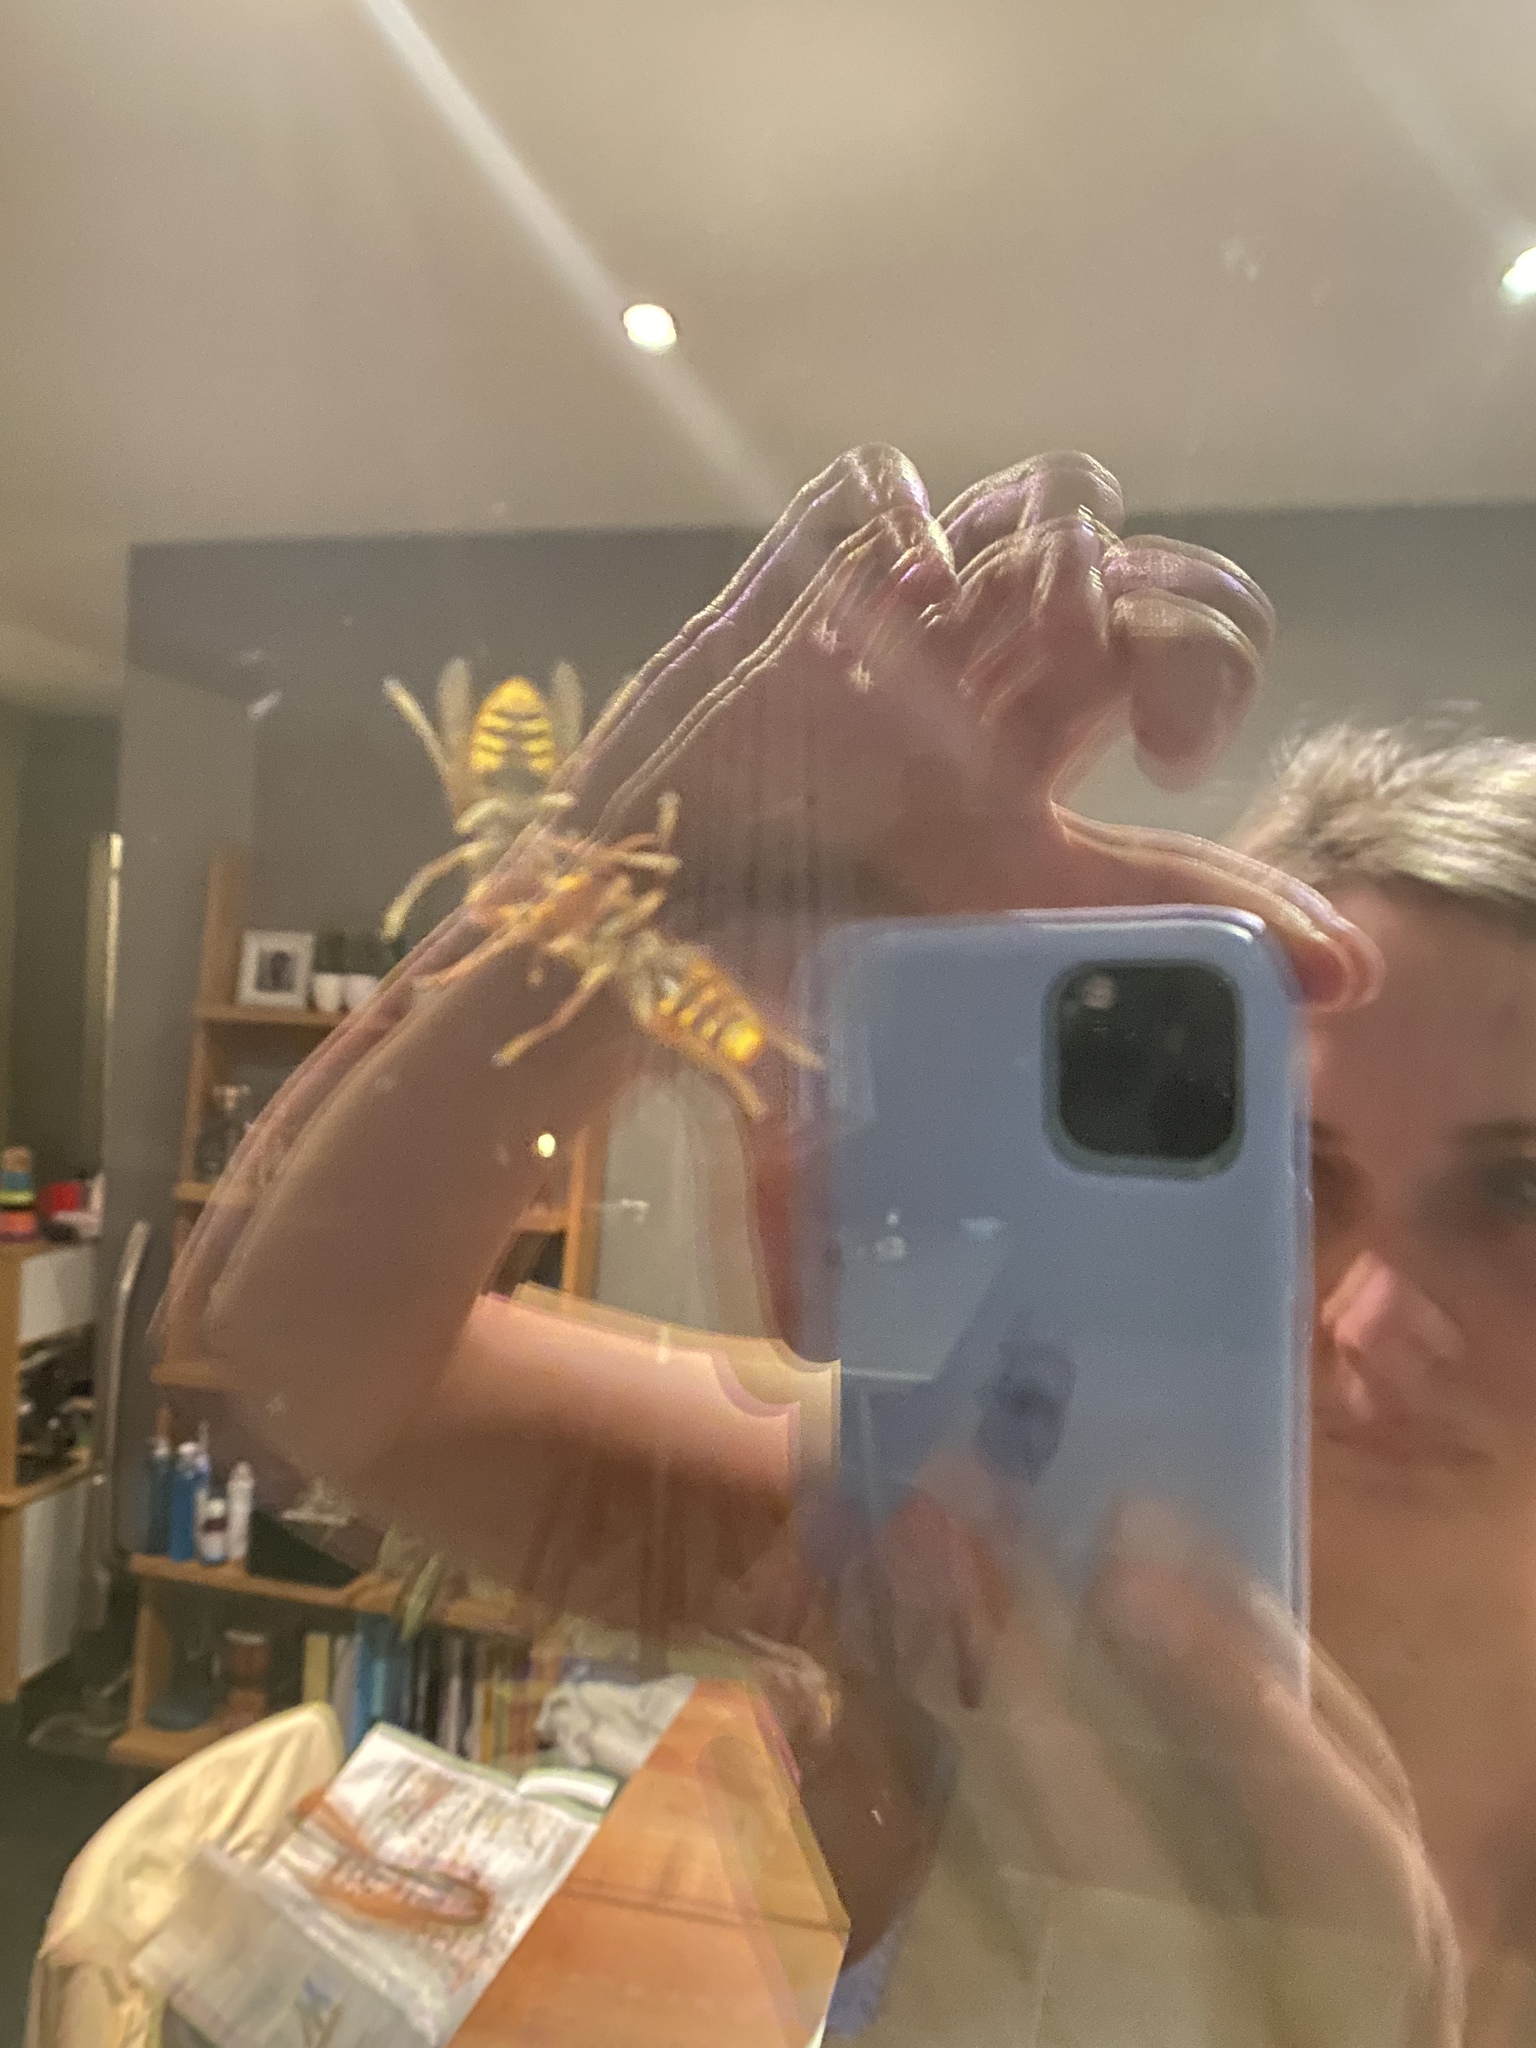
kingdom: Animalia
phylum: Arthropoda
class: Insecta
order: Hymenoptera
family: Vespidae
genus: Vespa
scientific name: Vespa crabro
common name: Hornet
